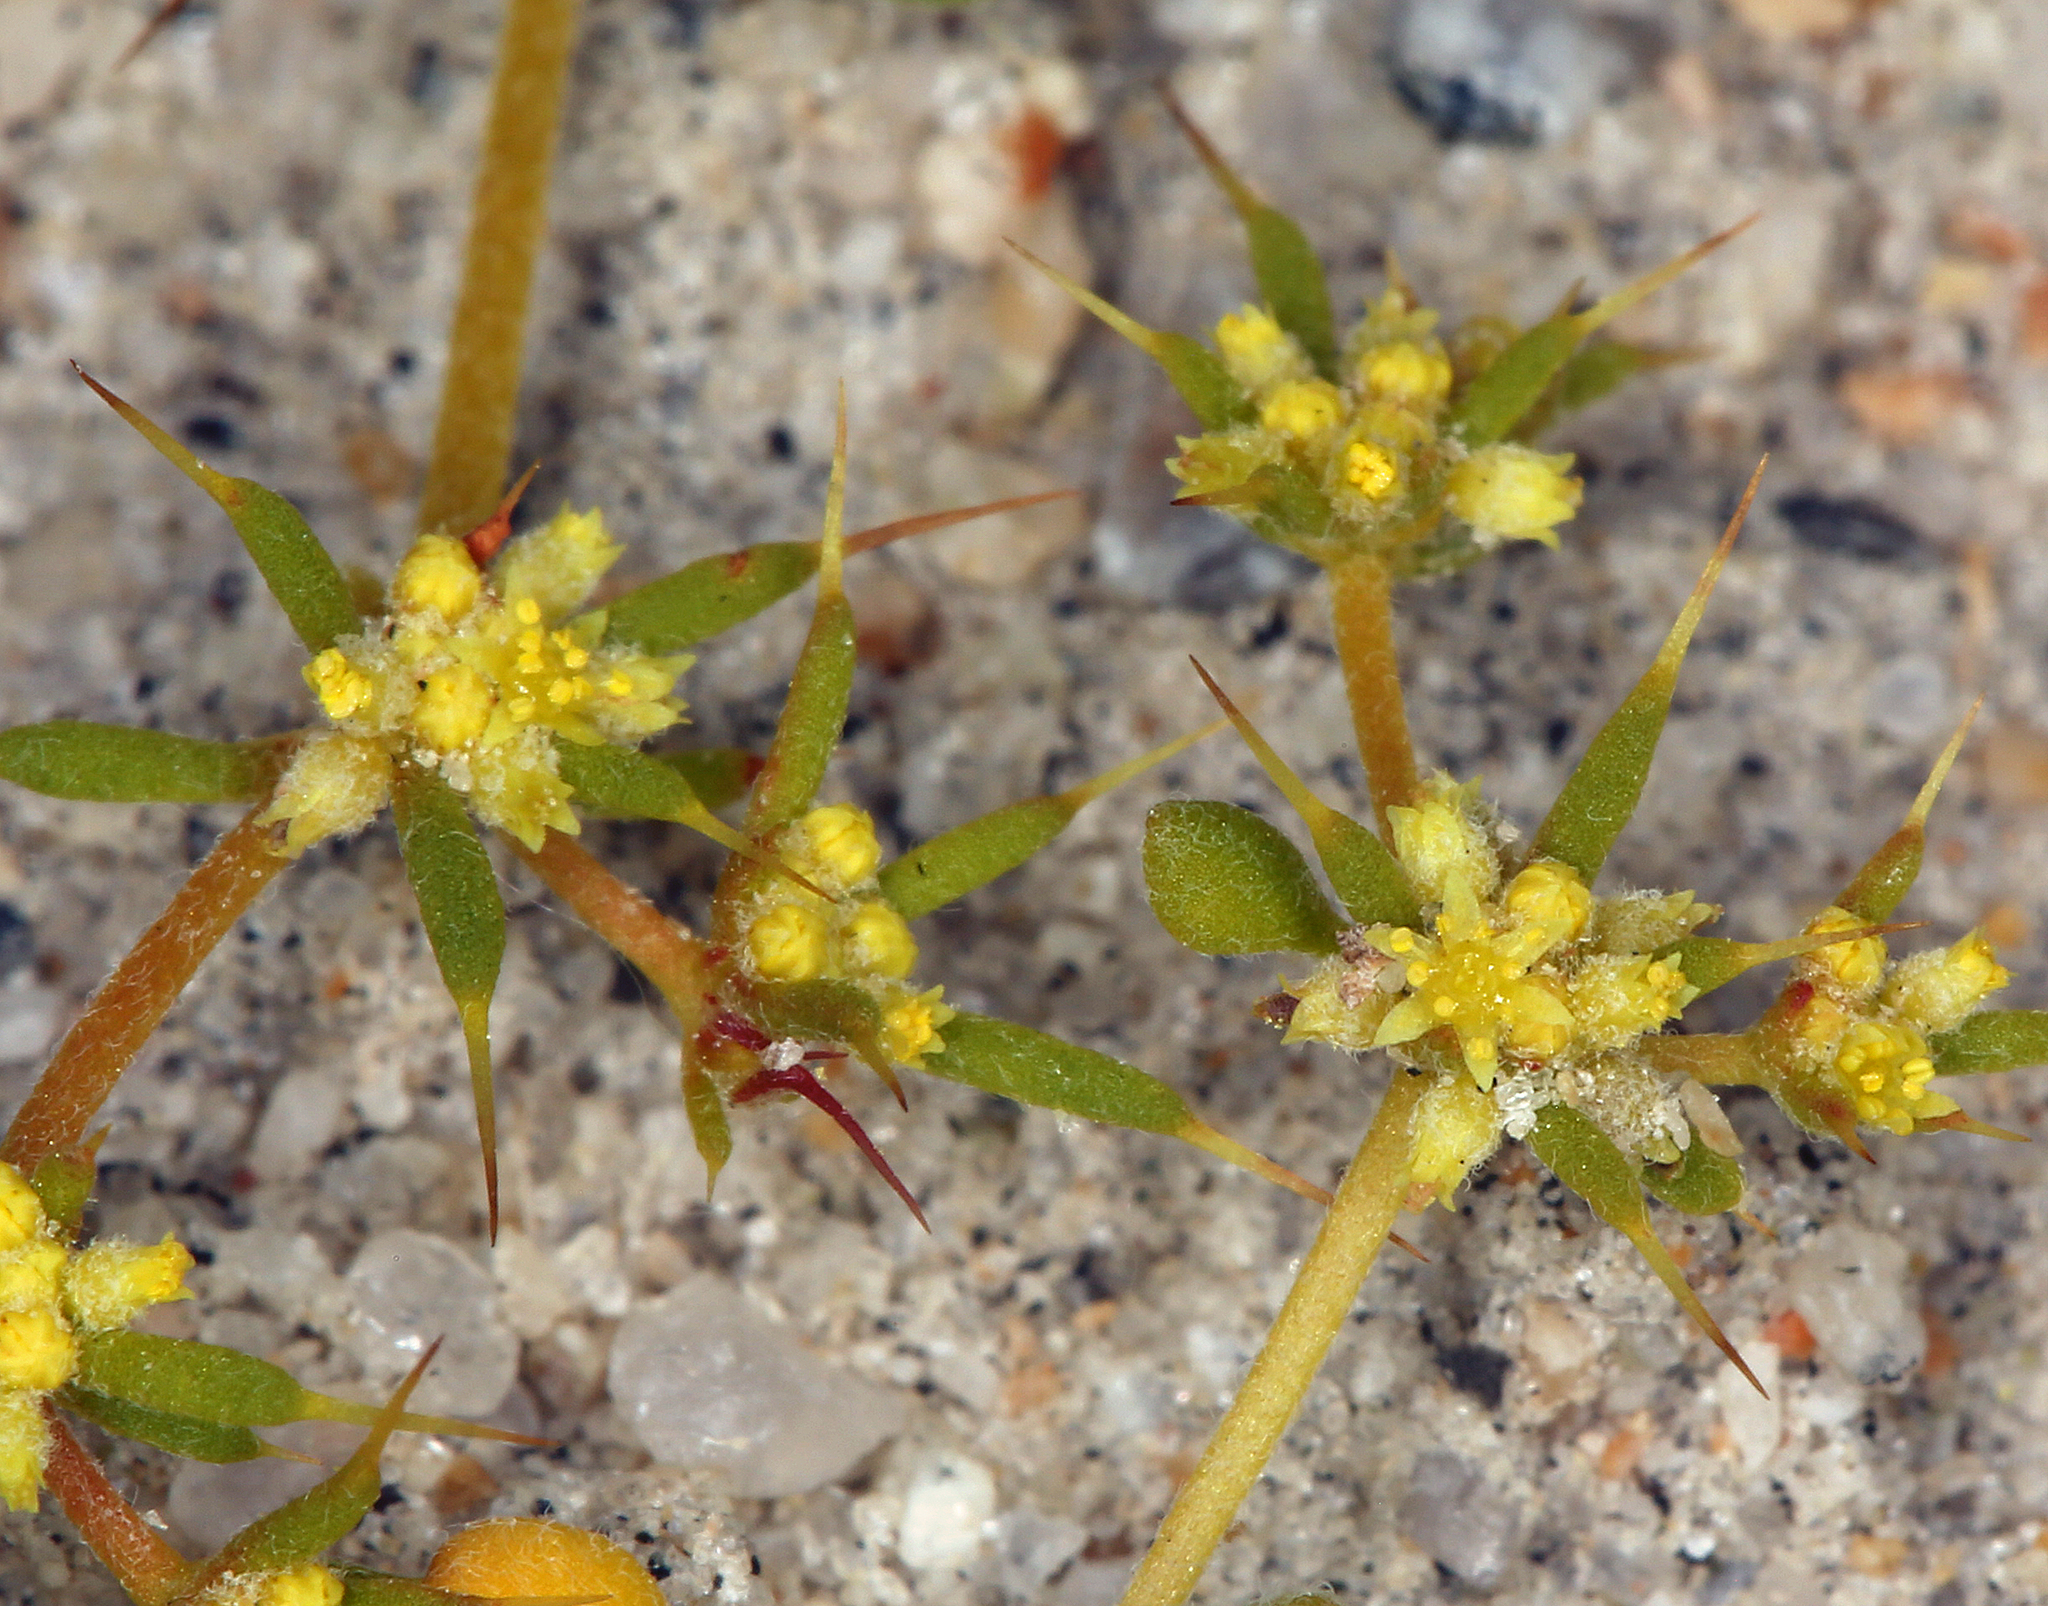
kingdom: Plantae
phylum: Tracheophyta
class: Magnoliopsida
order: Caryophyllales
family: Polygonaceae
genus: Goodmania
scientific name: Goodmania luteola
